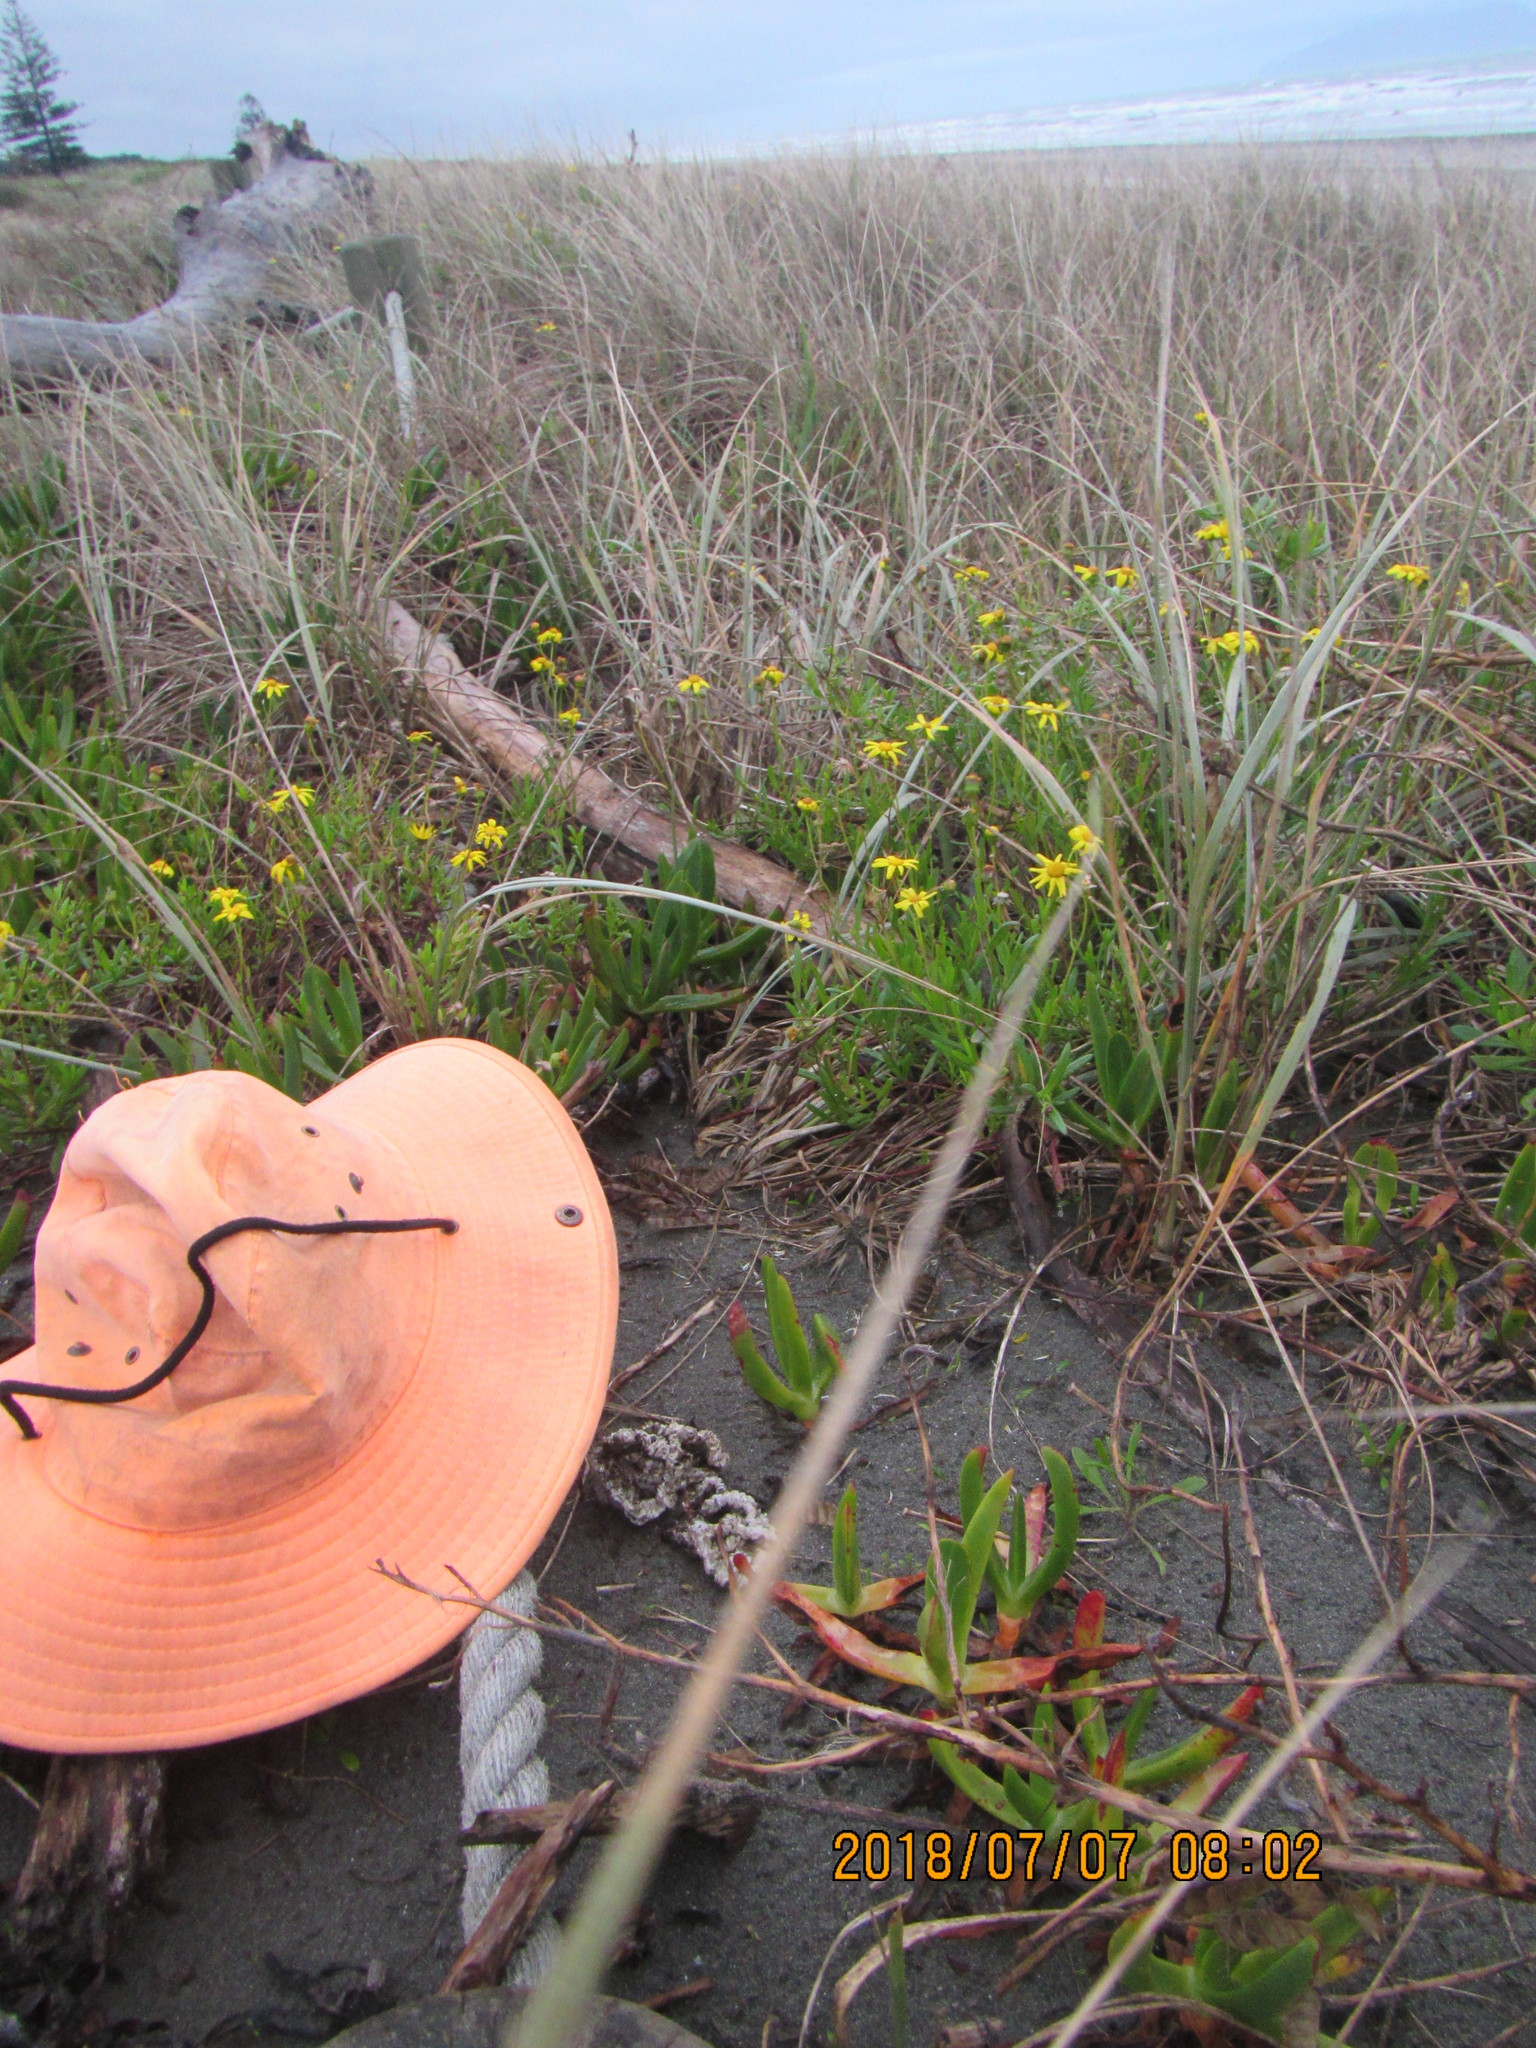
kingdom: Fungi
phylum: Basidiomycota
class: Agaricomycetes
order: Phallales
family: Phallaceae
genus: Ileodictyon
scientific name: Ileodictyon cibarium
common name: Basket fungus
